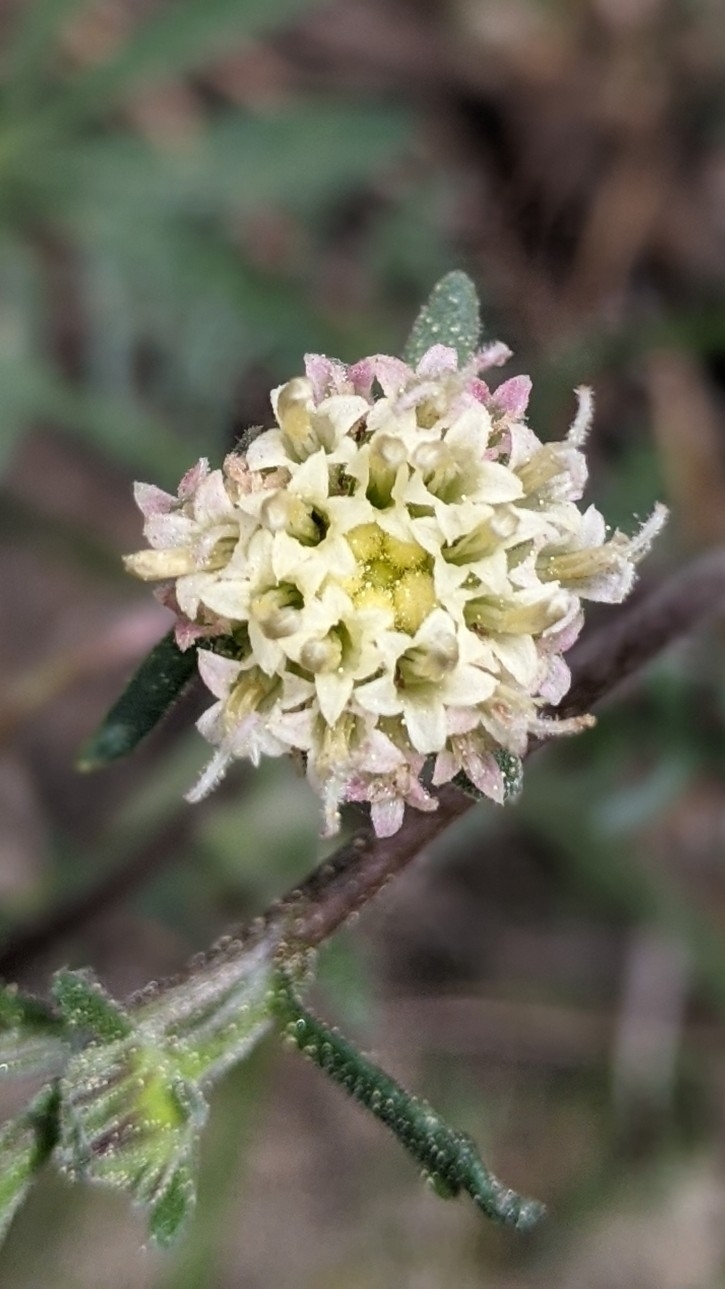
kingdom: Plantae
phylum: Tracheophyta
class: Magnoliopsida
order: Asterales
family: Asteraceae
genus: Chaenactis
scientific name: Chaenactis douglasii
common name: Hoary pincushion
